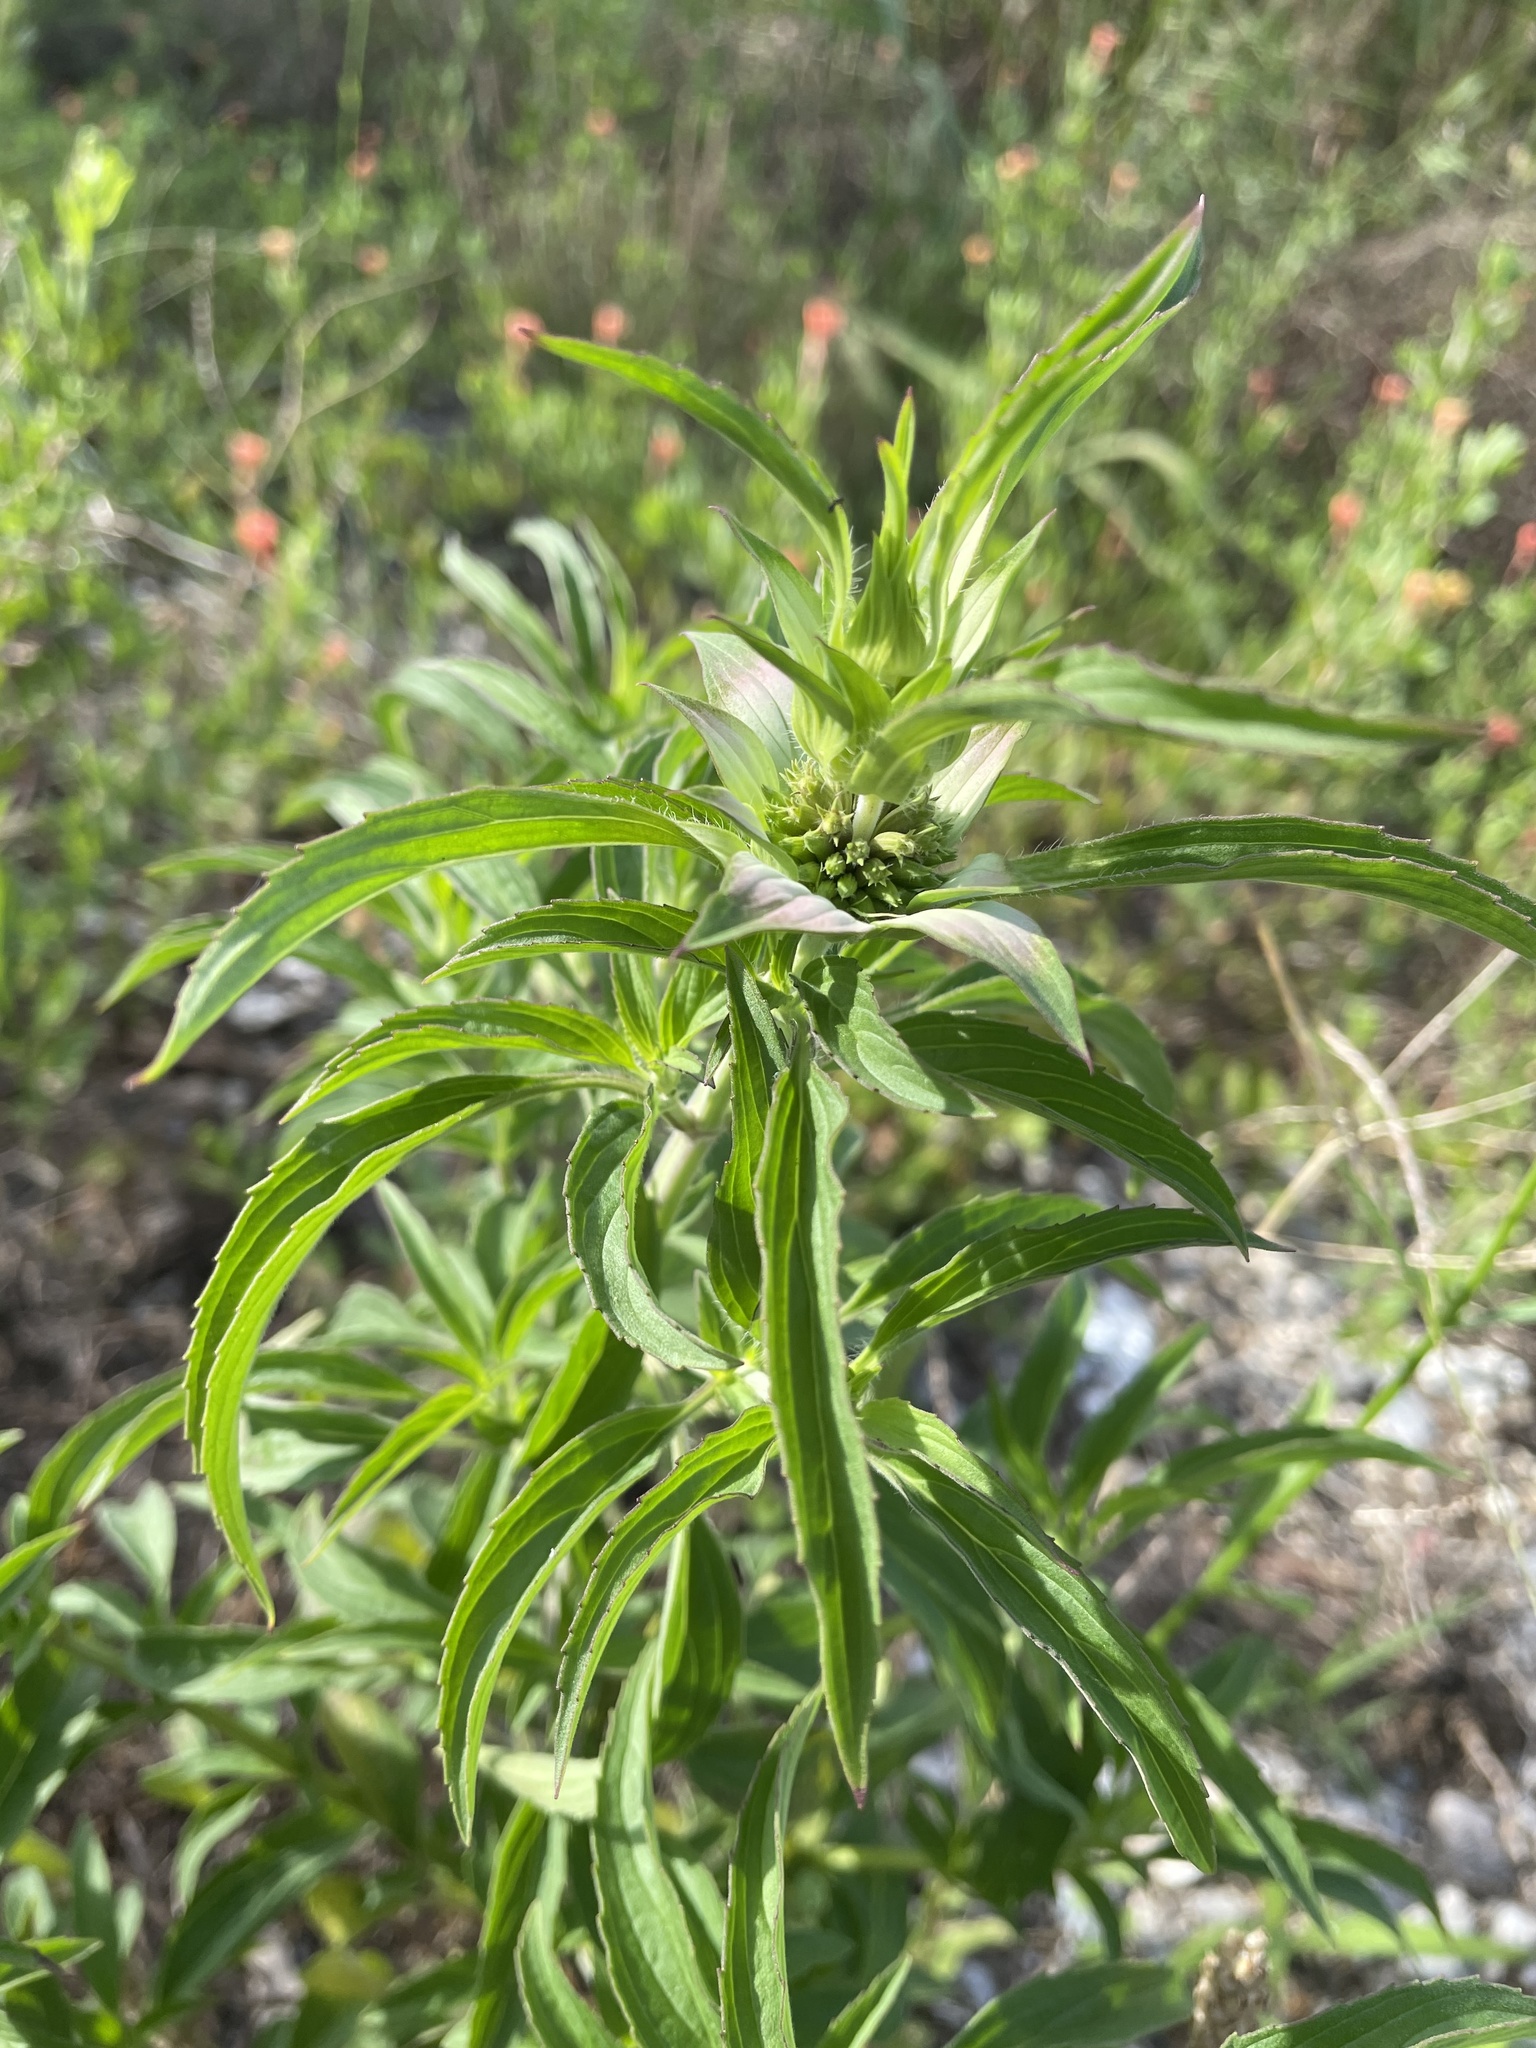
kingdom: Plantae
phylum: Tracheophyta
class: Magnoliopsida
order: Lamiales
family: Lamiaceae
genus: Monarda
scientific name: Monarda punctata
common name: Dotted monarda
